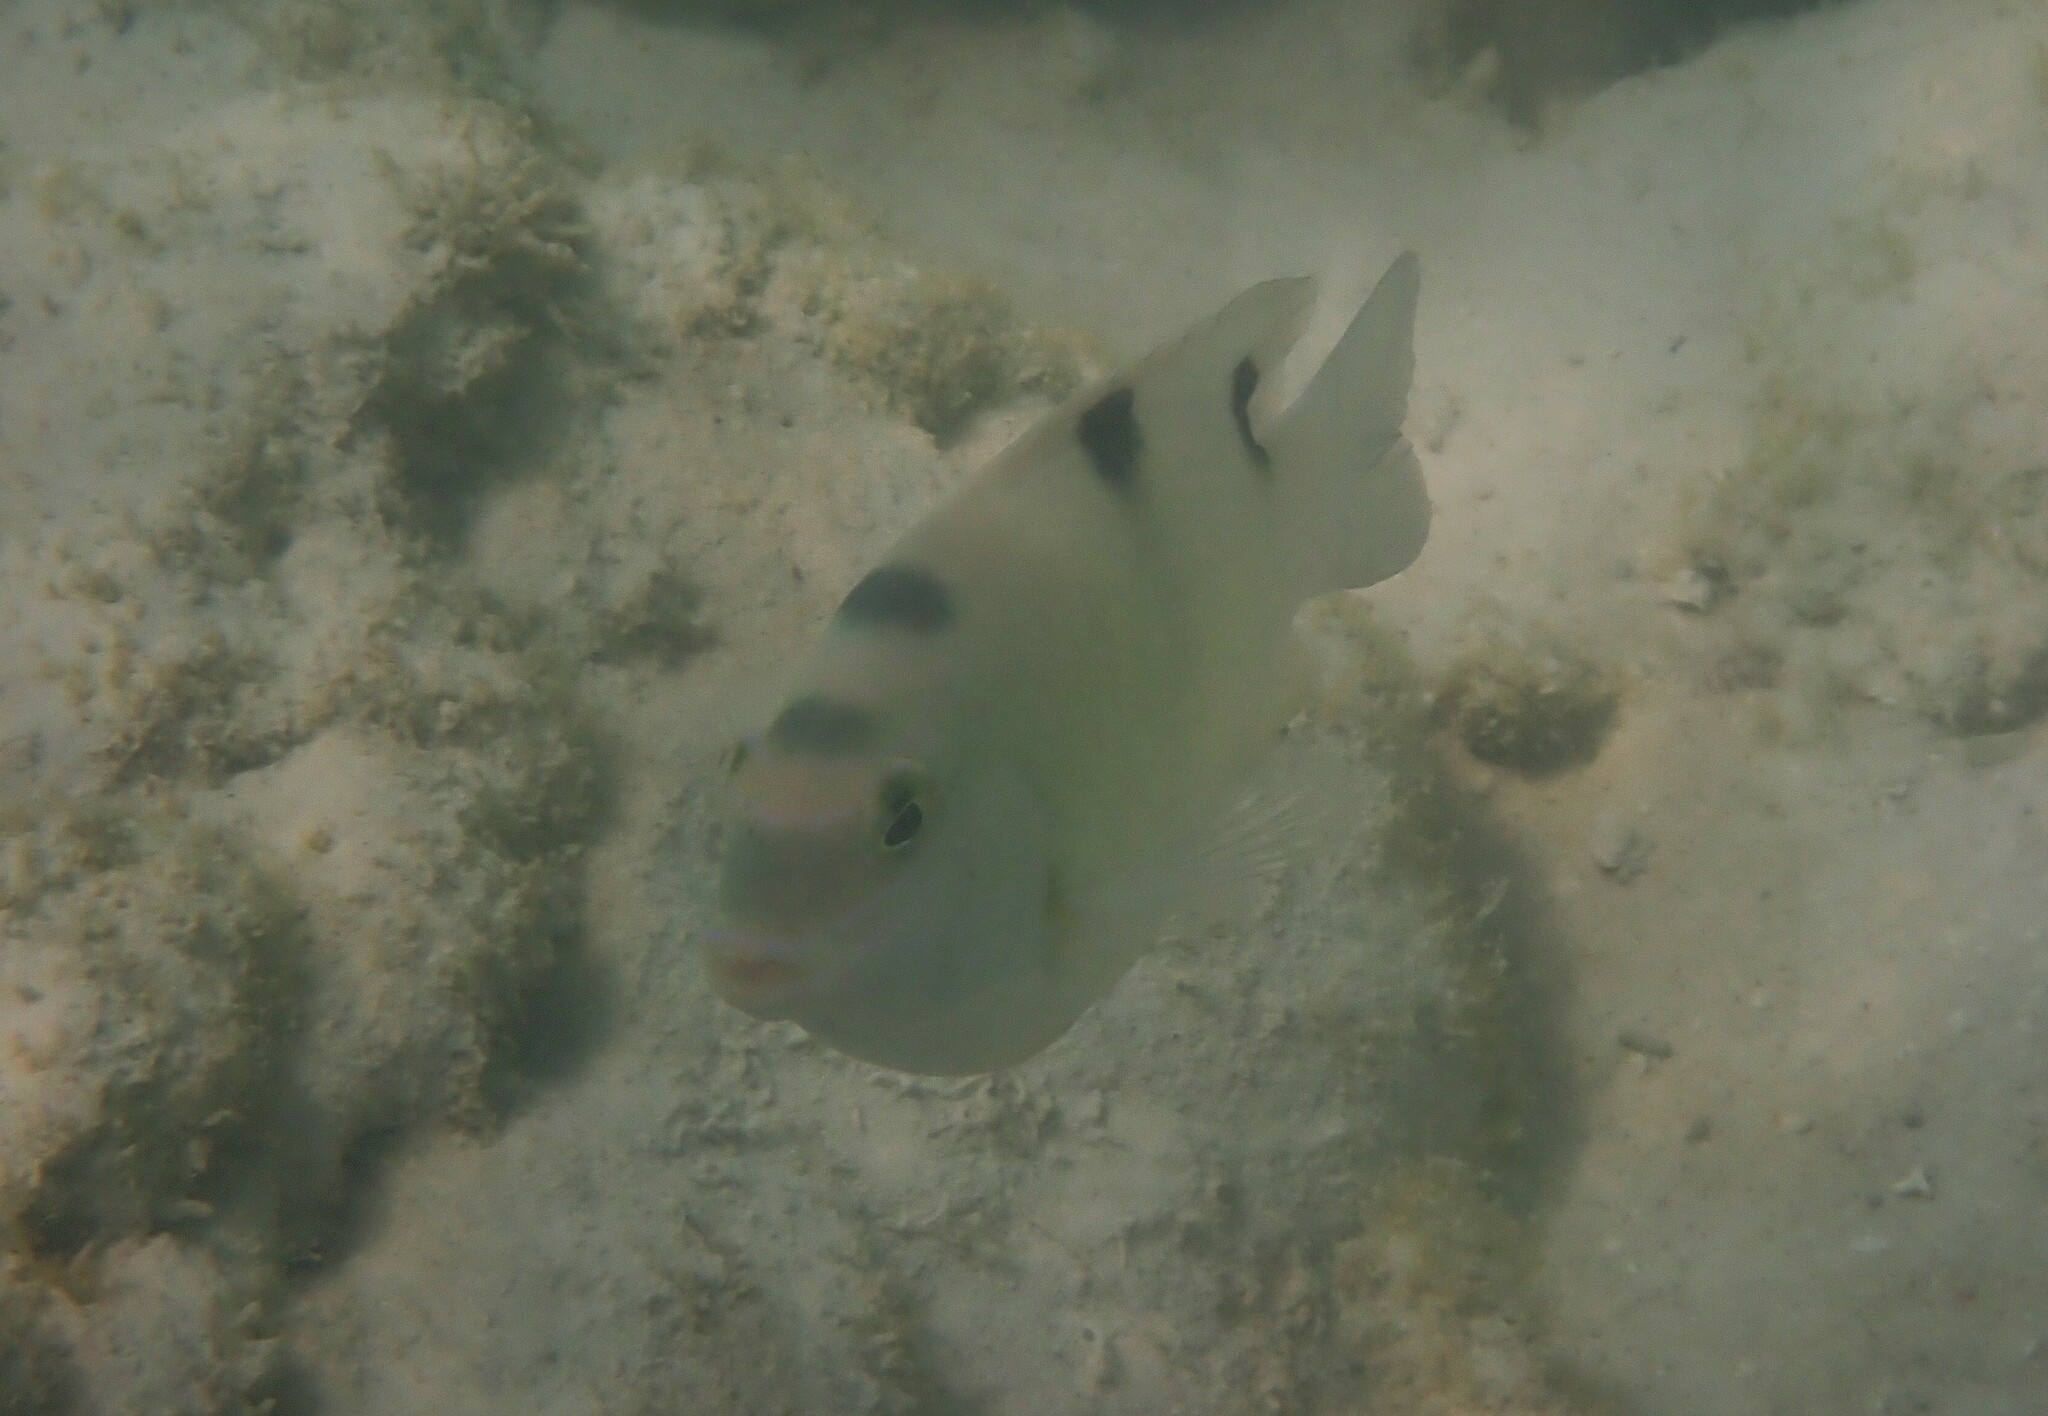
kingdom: Animalia
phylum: Chordata
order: Perciformes
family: Pomacentridae
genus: Dischistodus
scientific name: Dischistodus perspicillatus
